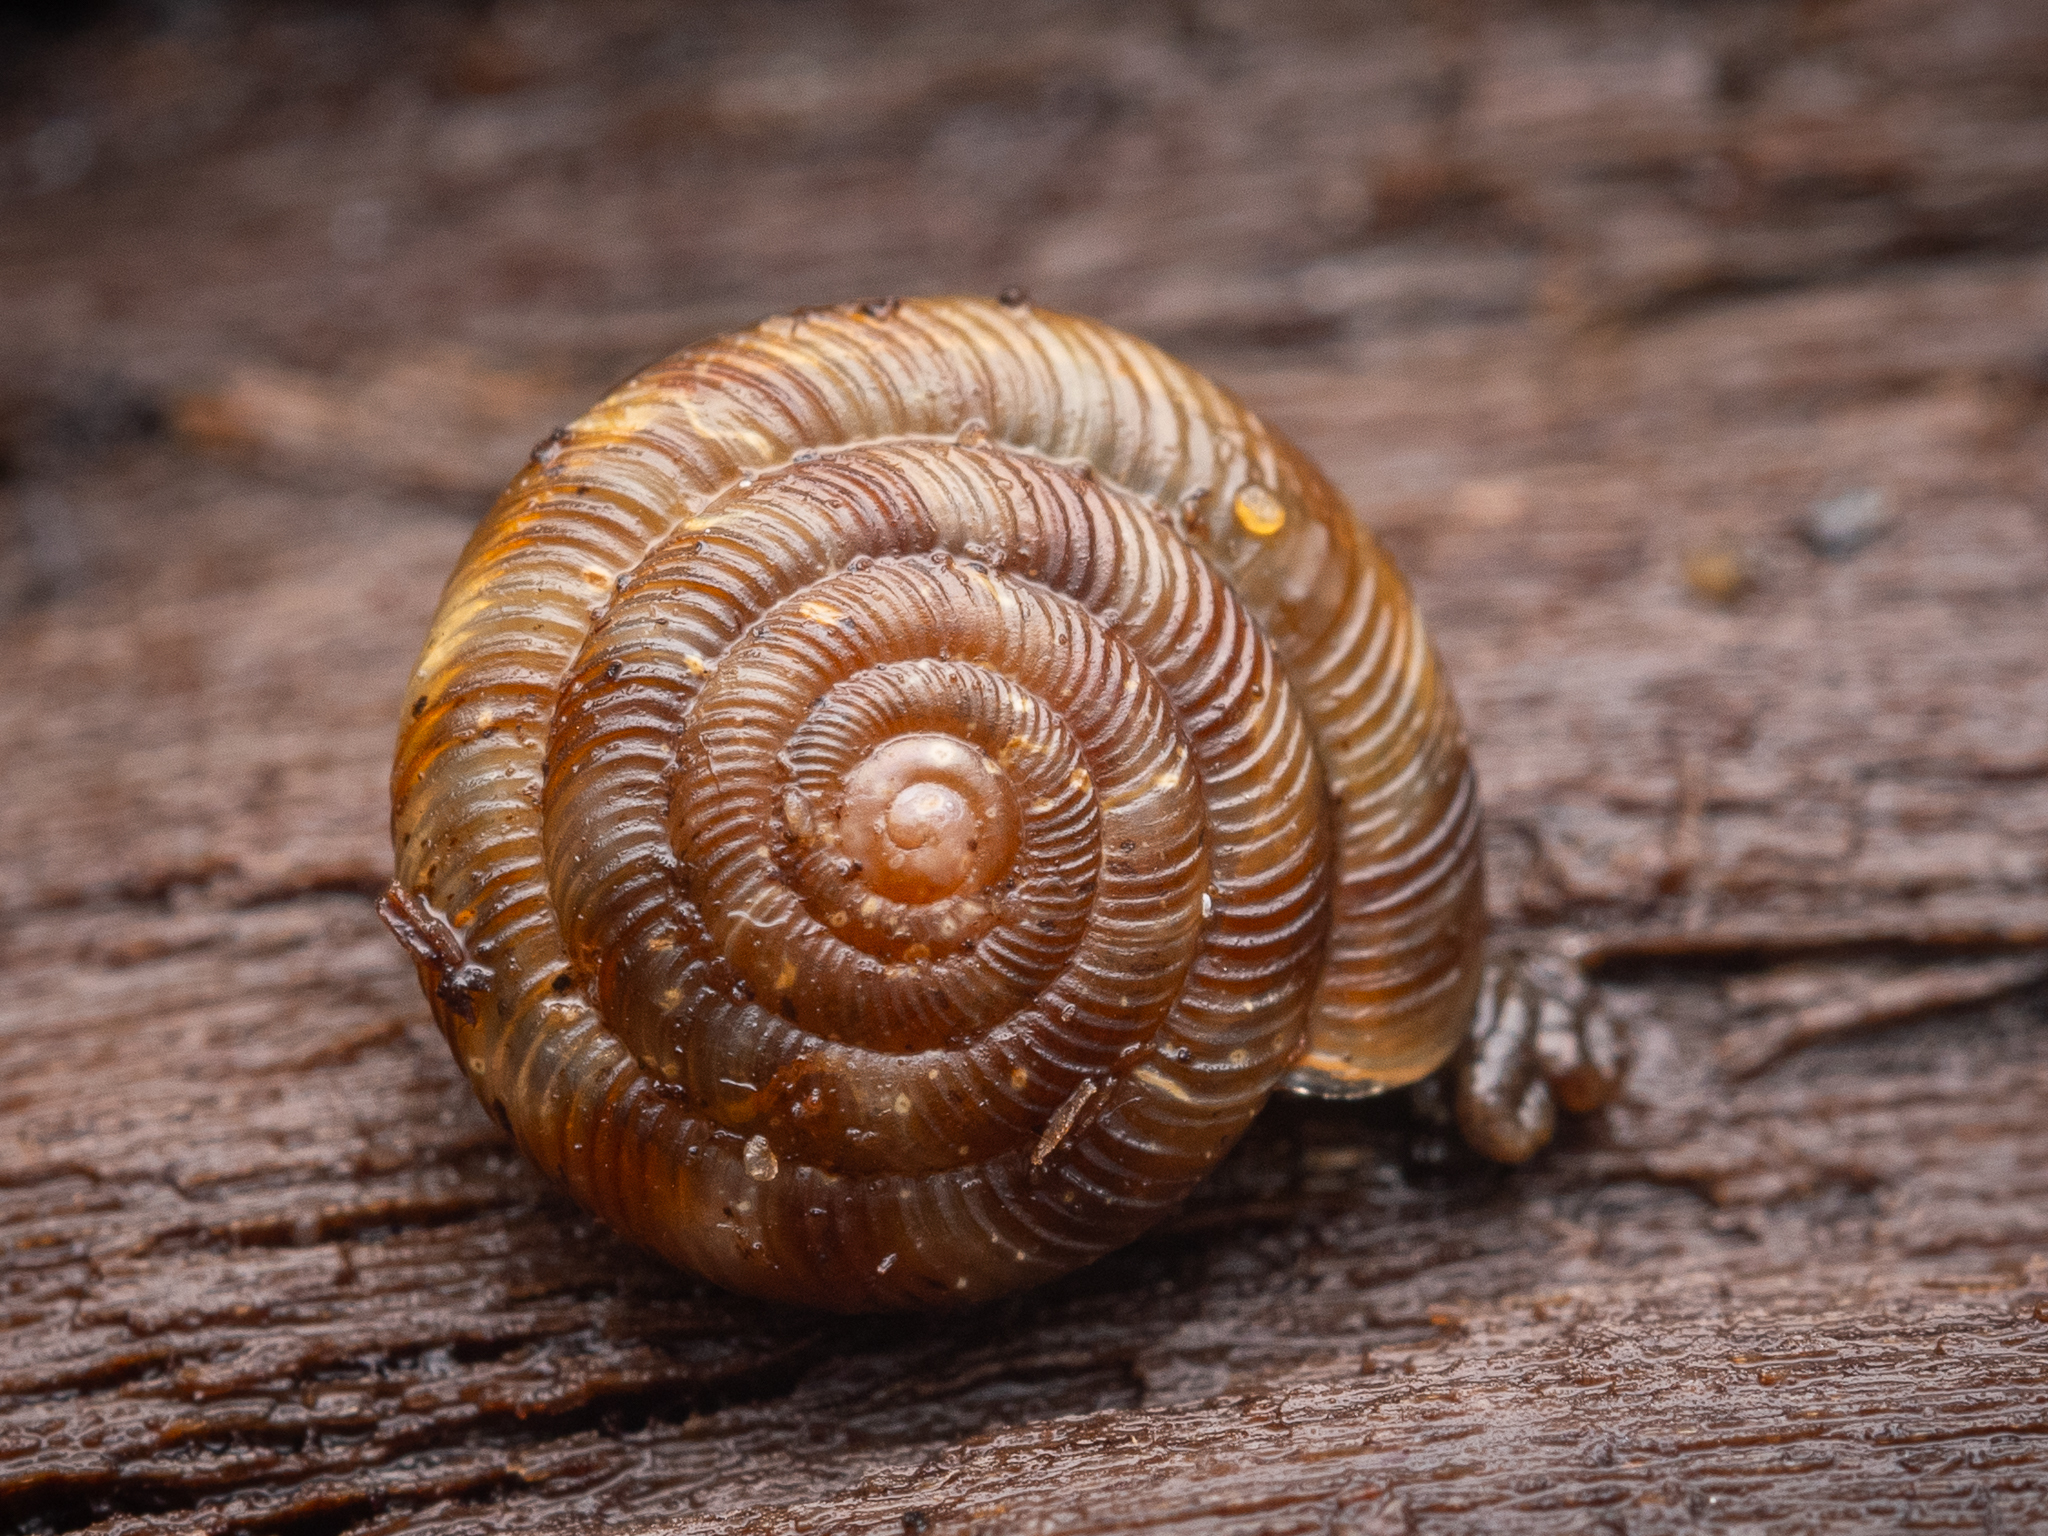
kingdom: Animalia
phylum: Mollusca
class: Gastropoda
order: Stylommatophora
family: Discidae
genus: Discus
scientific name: Discus rotundatus
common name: Rounded snail
